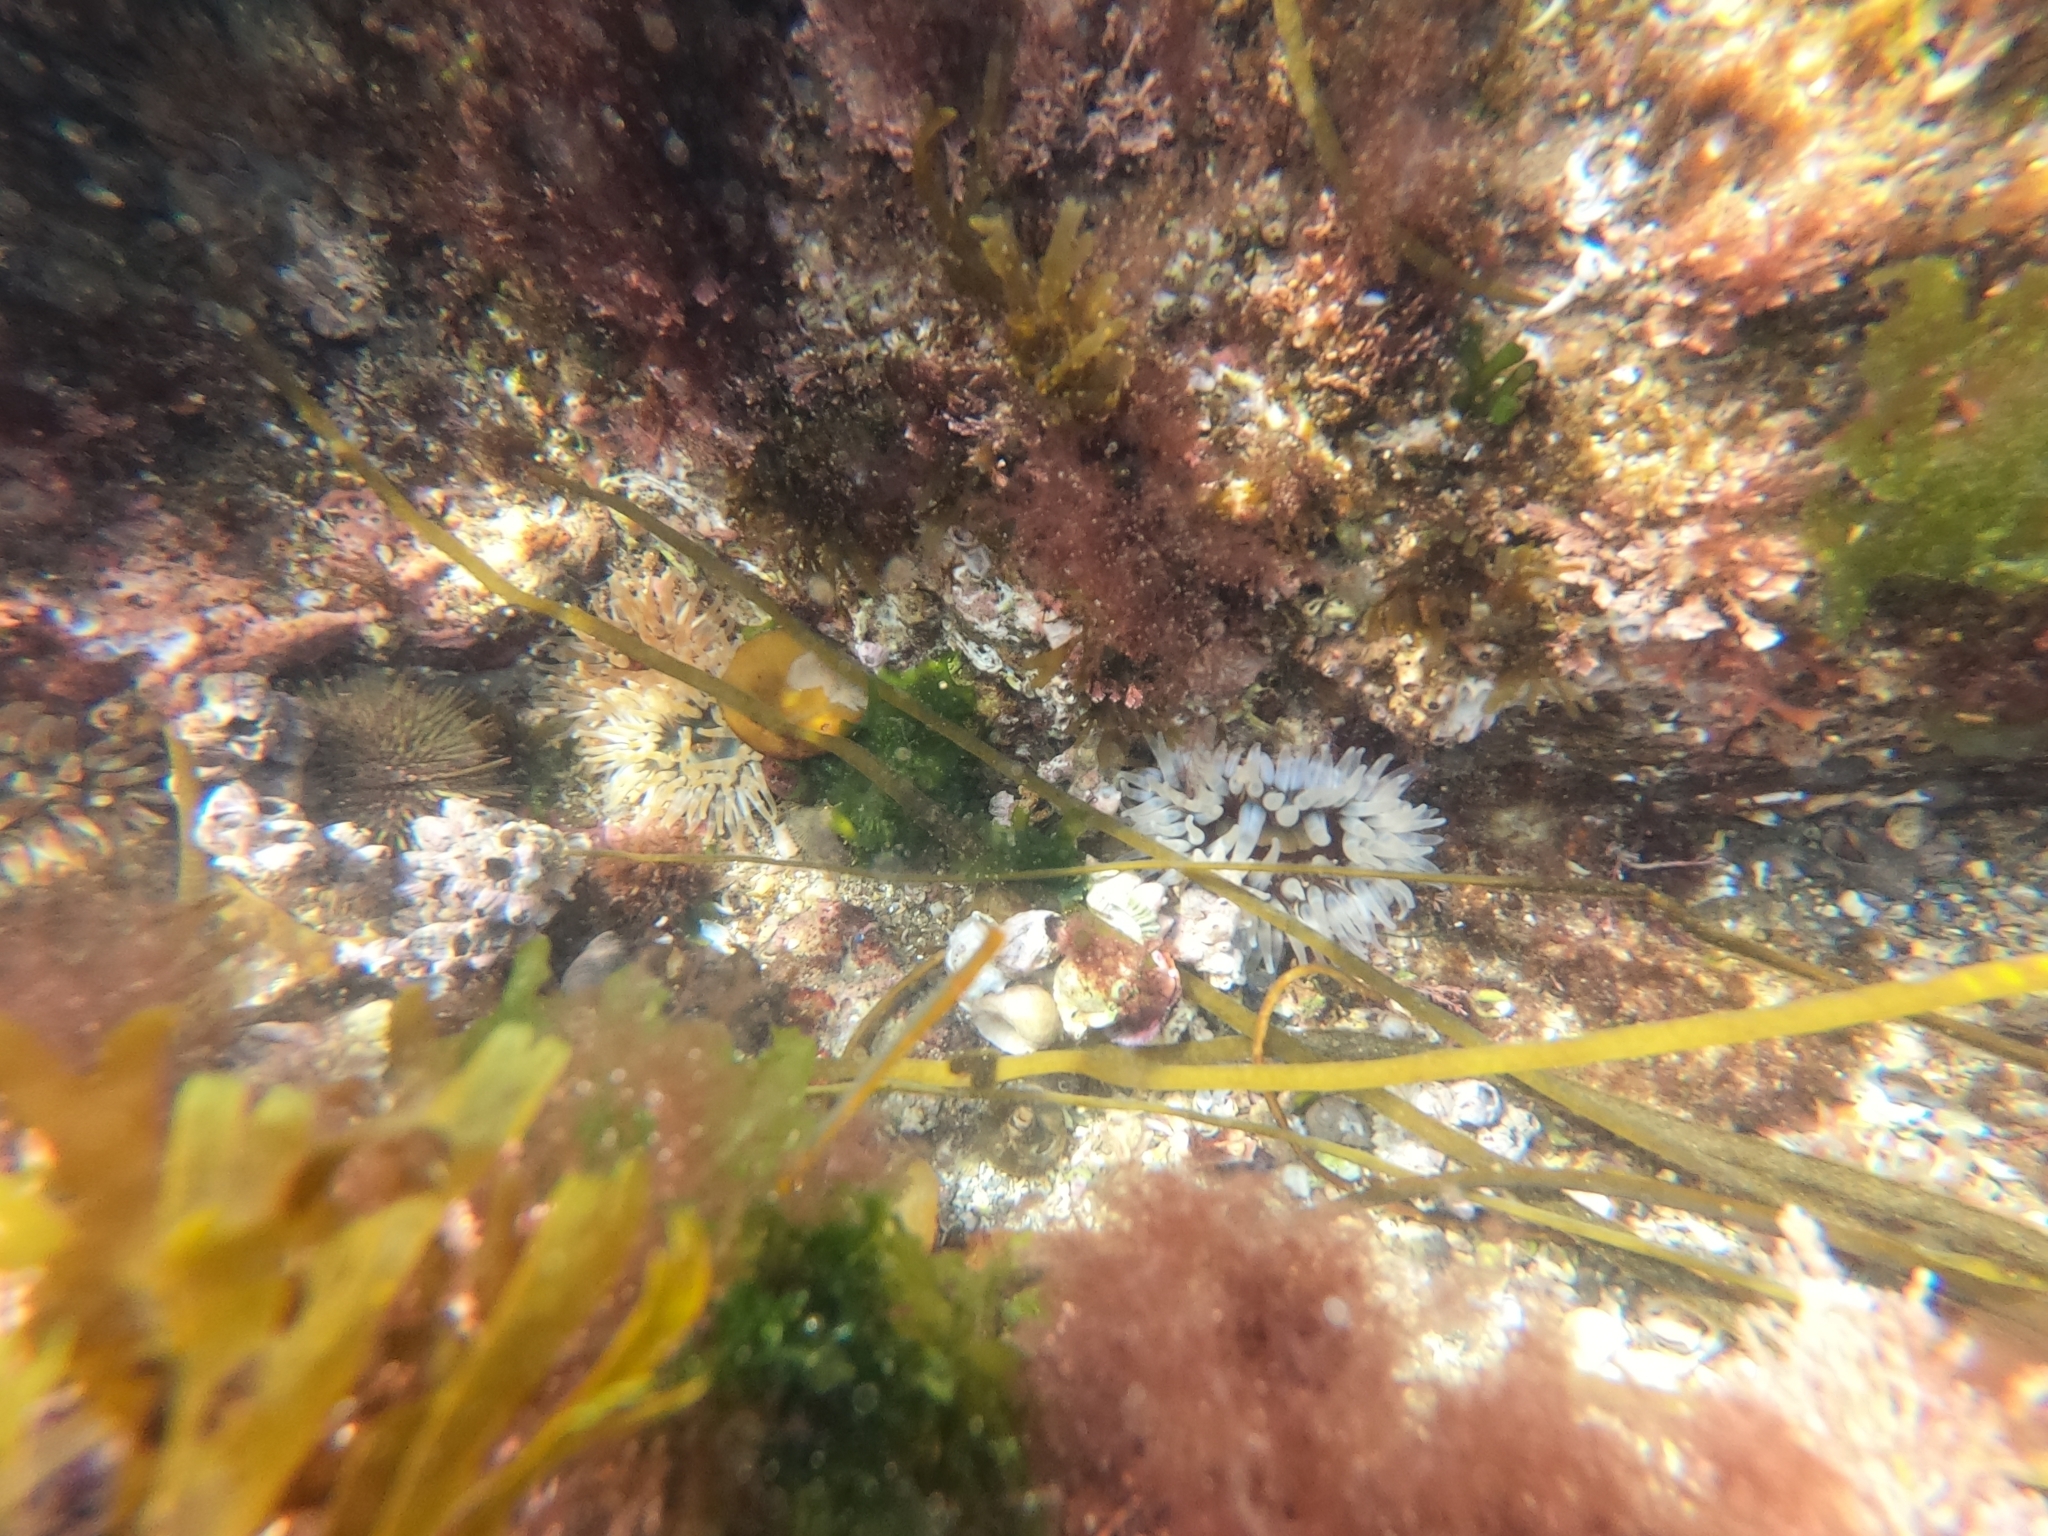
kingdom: Animalia
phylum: Cnidaria
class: Anthozoa
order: Actiniaria
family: Actiniidae
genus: Urticina
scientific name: Urticina felina
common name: Dahlia anemone
